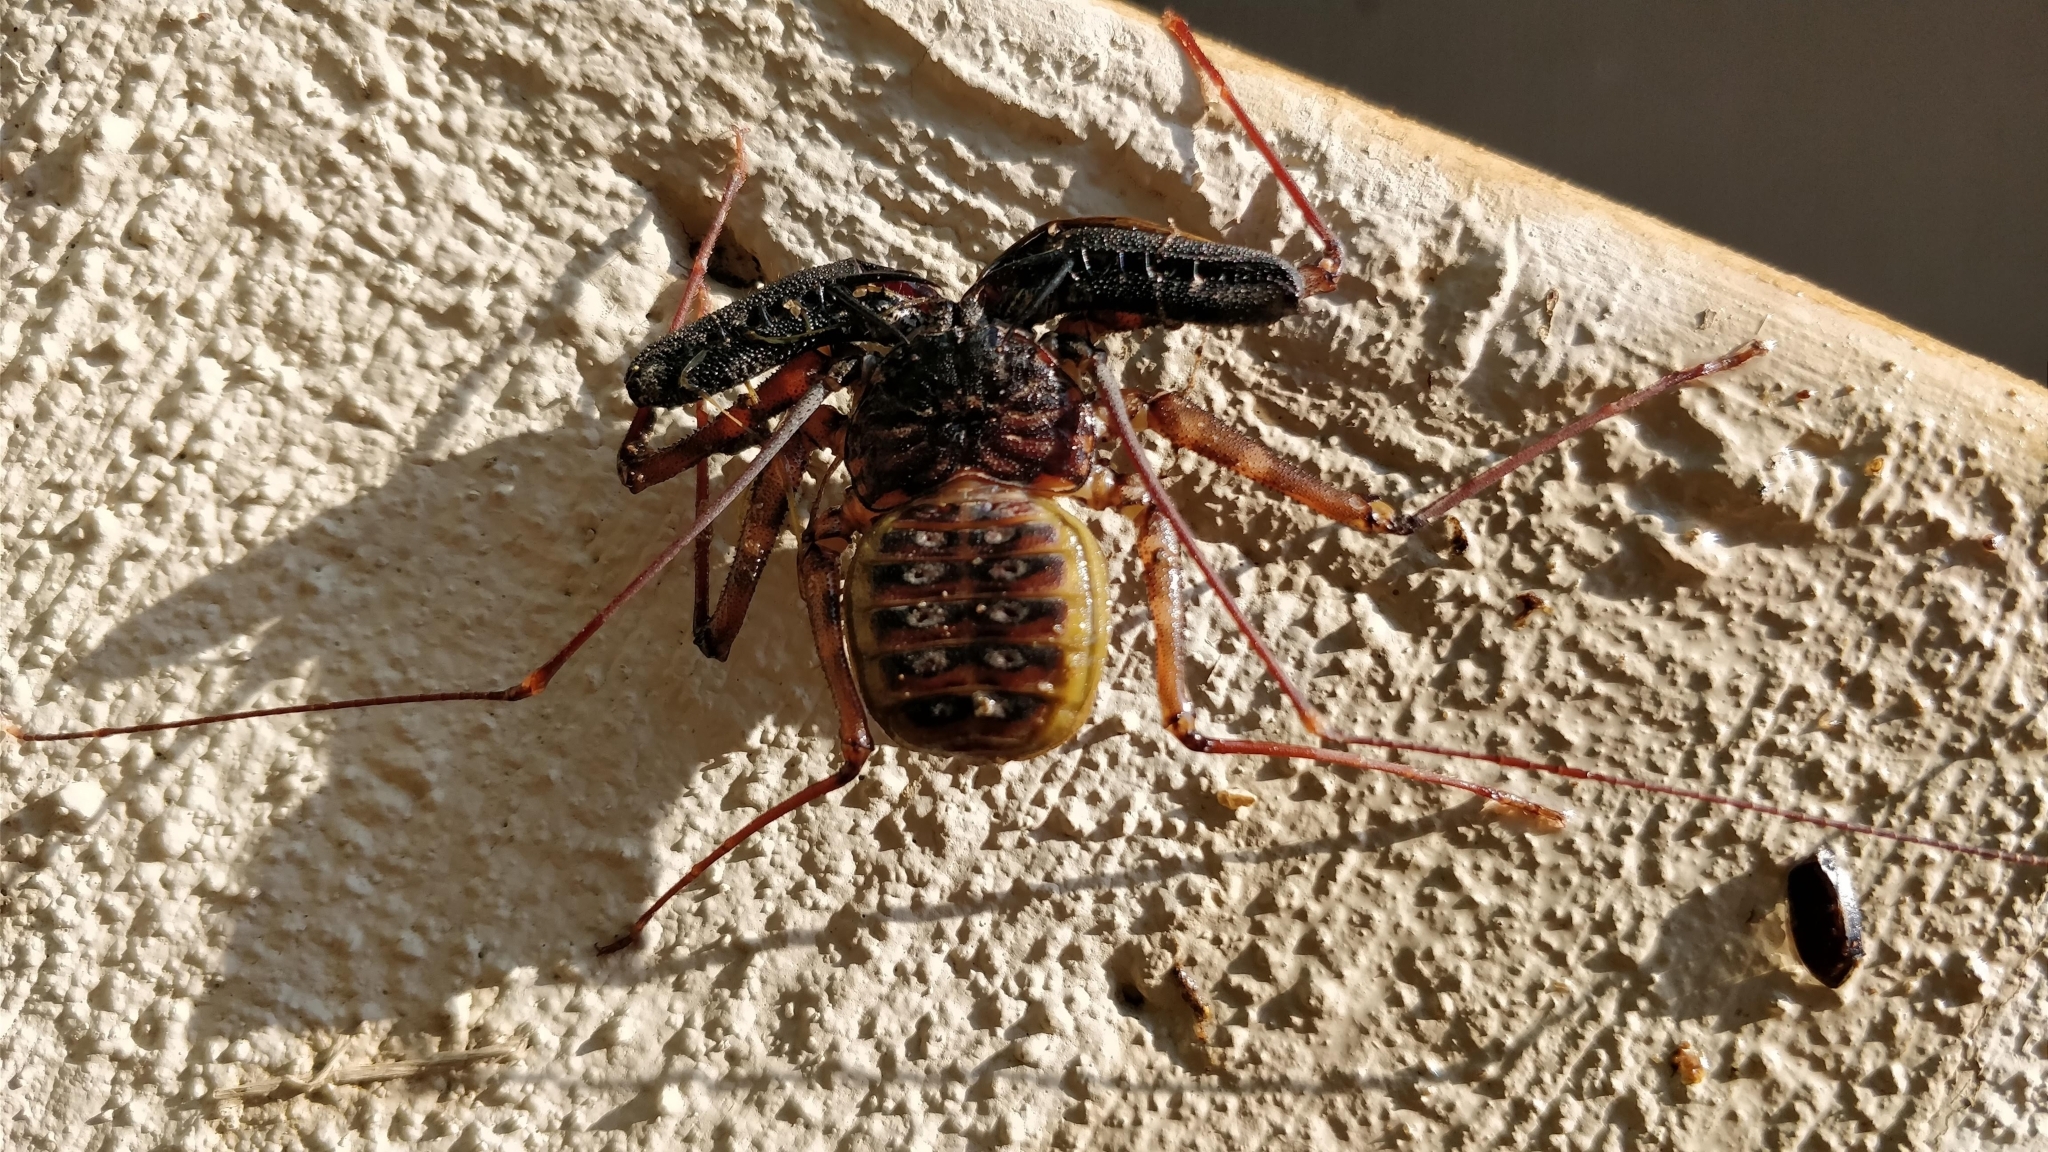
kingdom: Animalia
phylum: Arthropoda
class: Arachnida
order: Amblypygi
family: Phrynichidae
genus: Damon
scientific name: Damon variegatus
